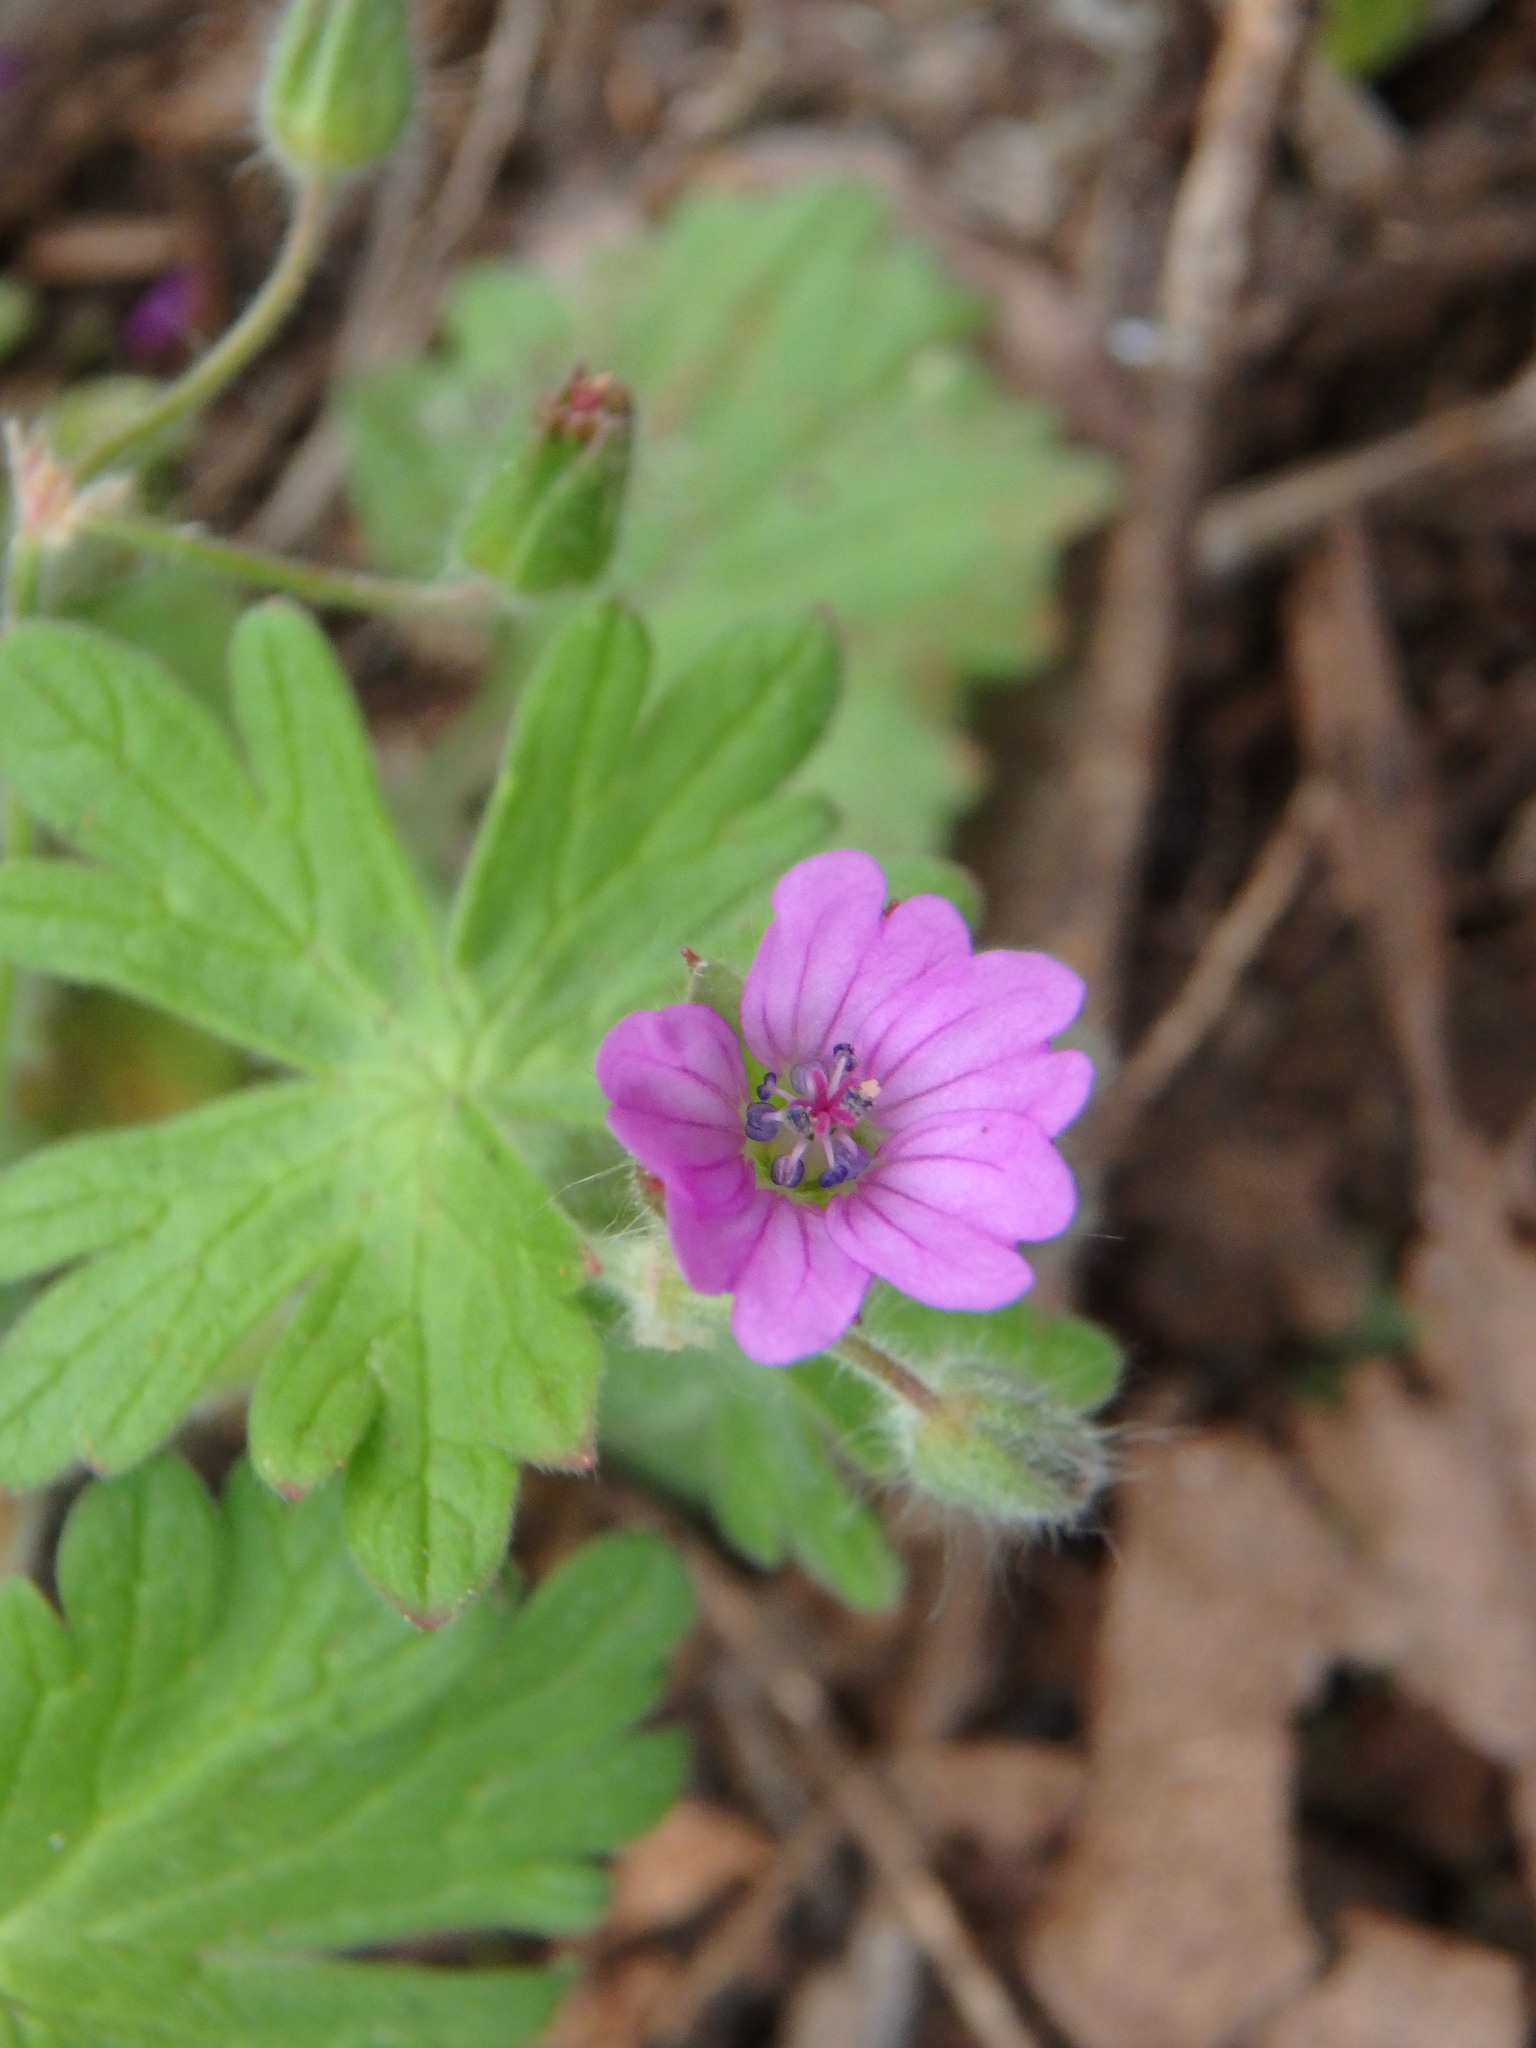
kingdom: Plantae
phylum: Tracheophyta
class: Magnoliopsida
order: Geraniales
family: Geraniaceae
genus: Geranium
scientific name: Geranium molle
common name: Dove's-foot crane's-bill
